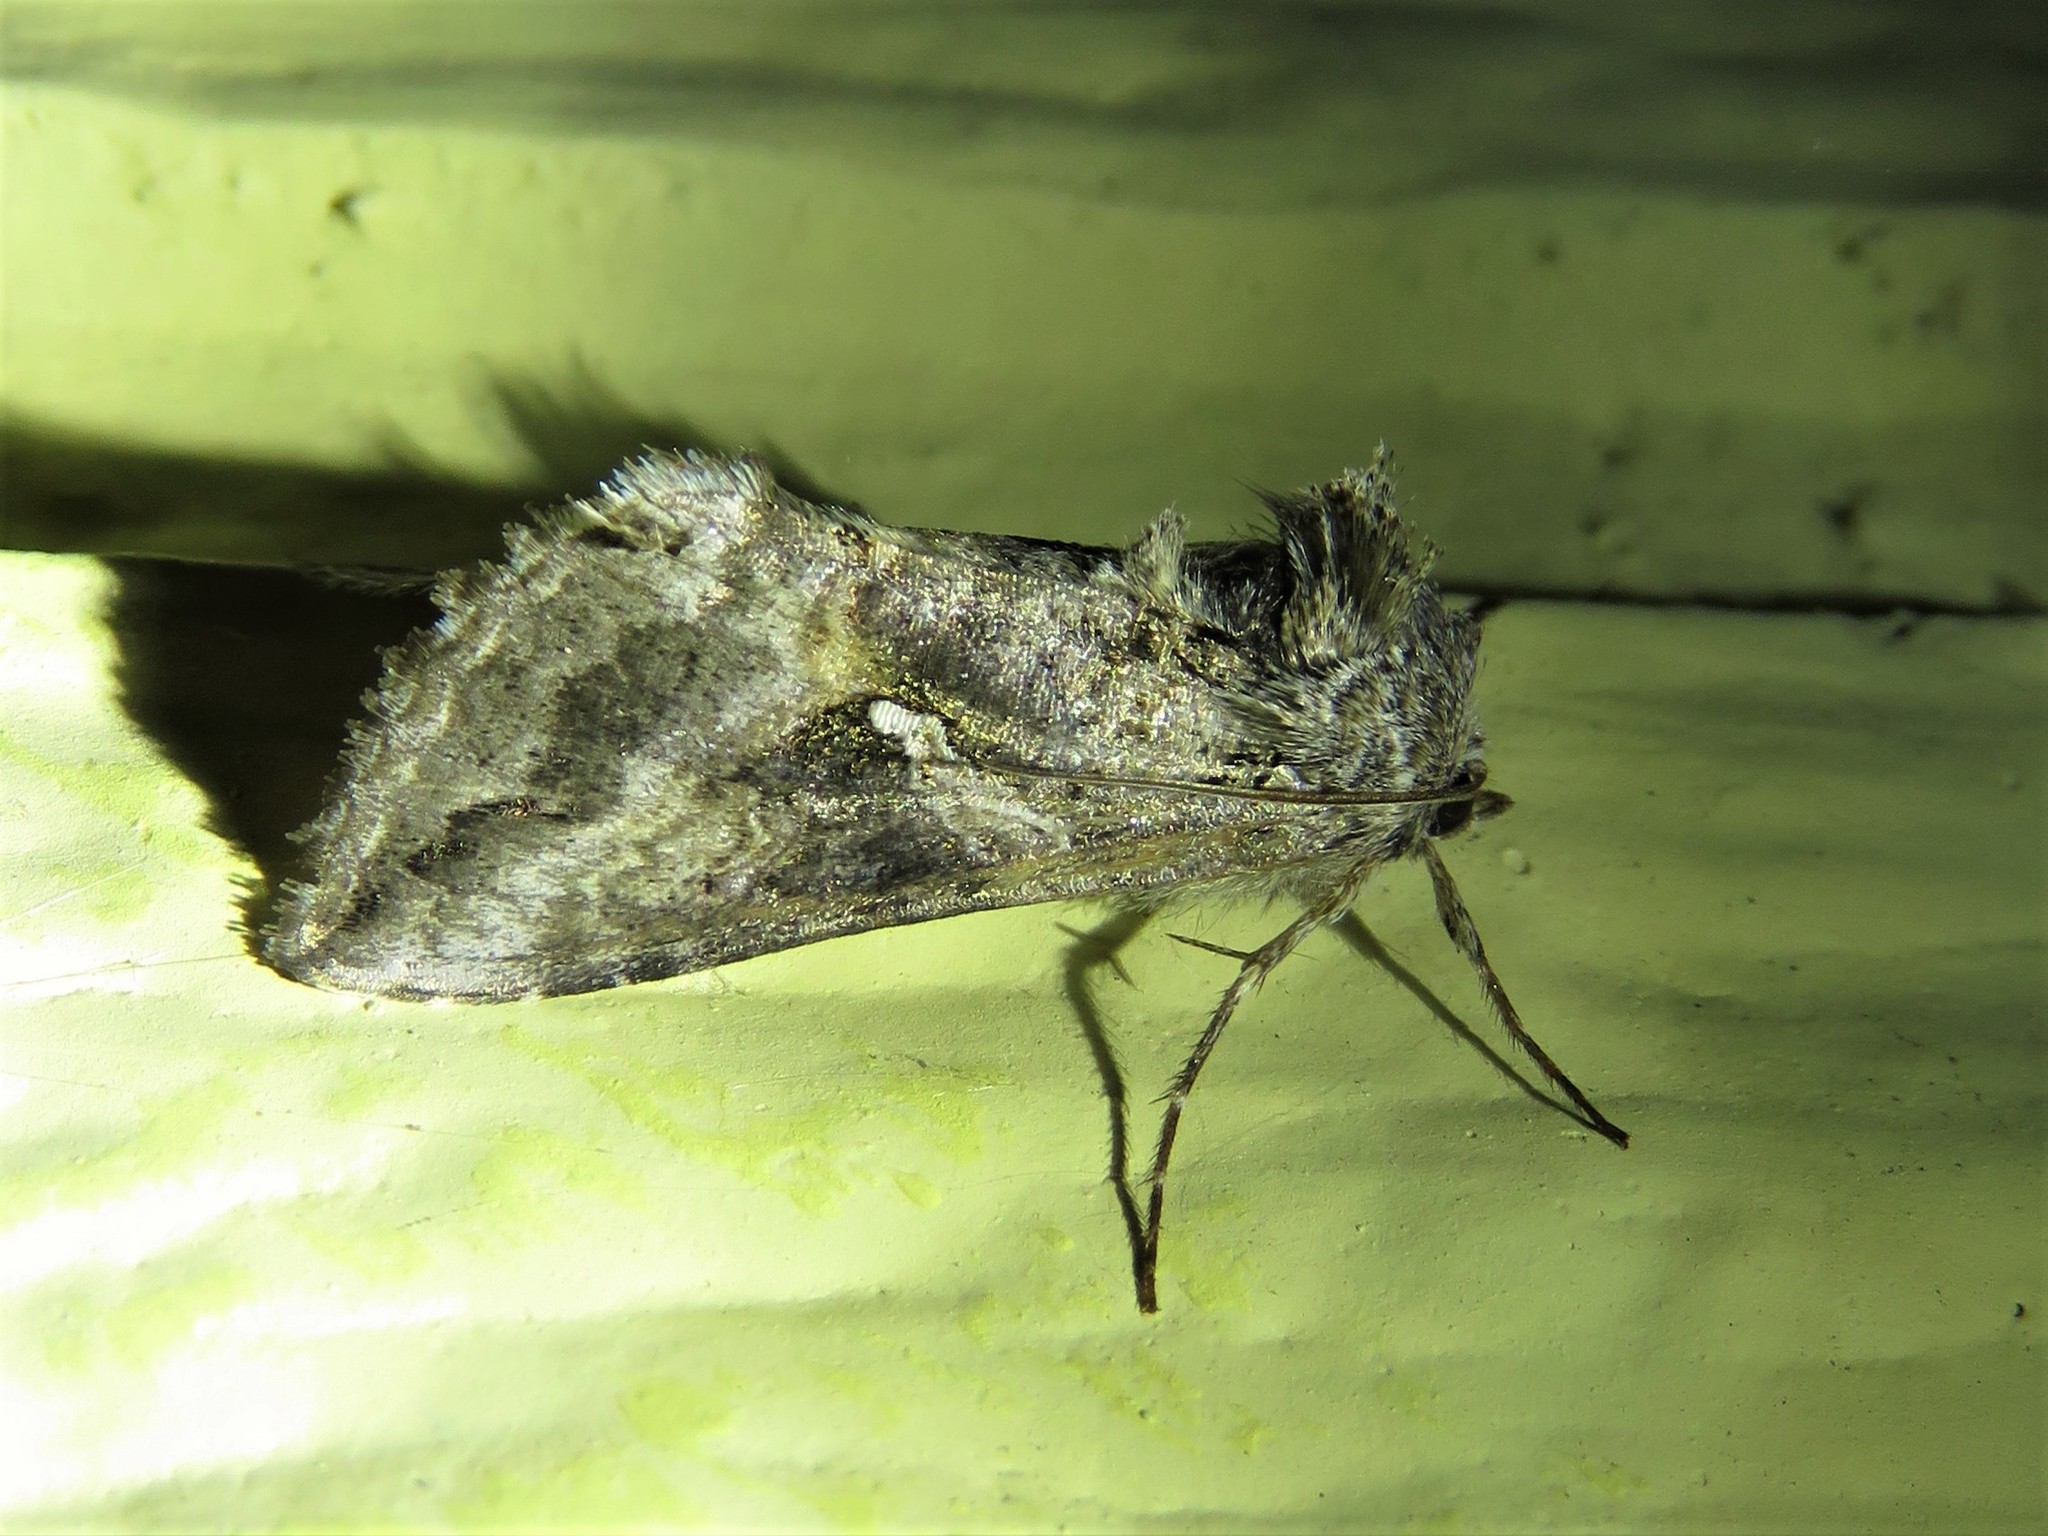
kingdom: Animalia
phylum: Arthropoda
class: Insecta
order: Lepidoptera
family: Noctuidae
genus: Rachiplusia
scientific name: Rachiplusia ou
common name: Gray looper moth
